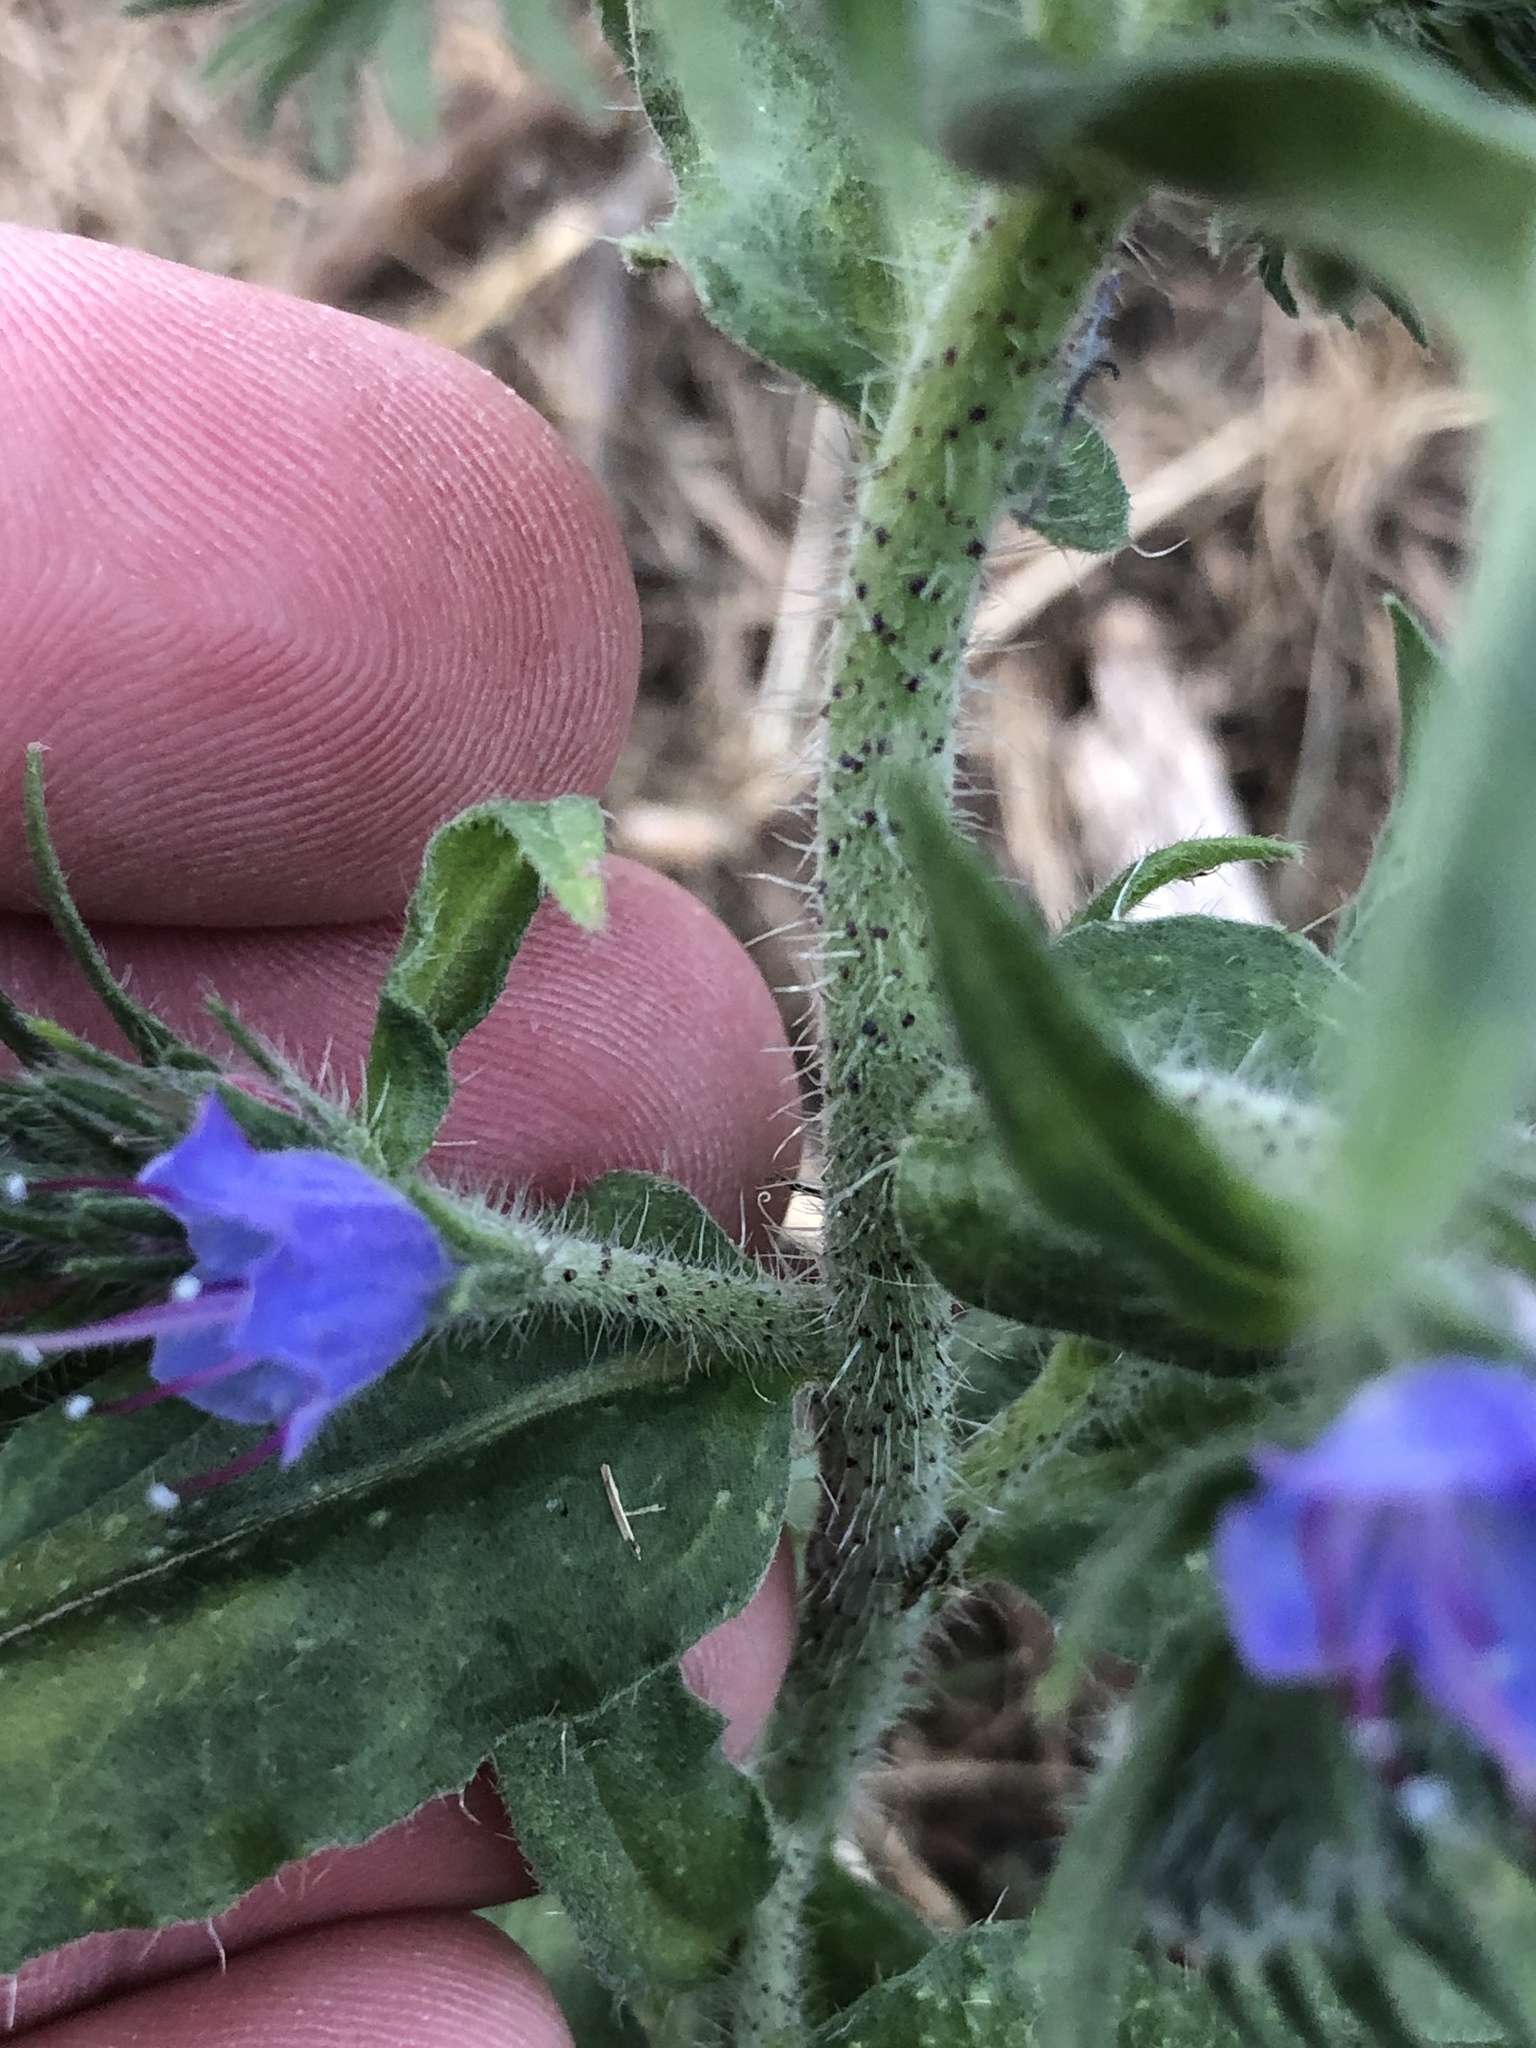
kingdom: Plantae
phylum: Tracheophyta
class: Magnoliopsida
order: Boraginales
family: Boraginaceae
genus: Echium
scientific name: Echium vulgare
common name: Common viper's bugloss
